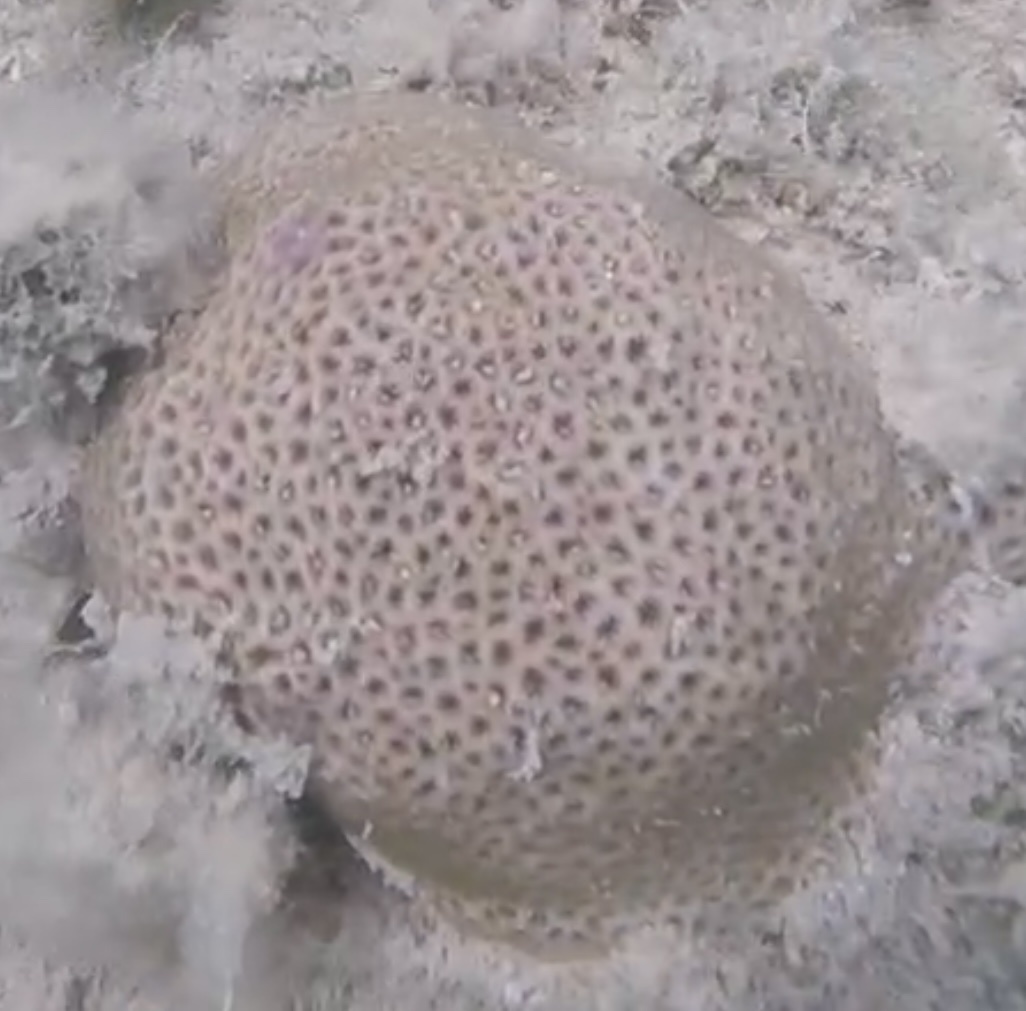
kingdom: Animalia
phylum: Cnidaria
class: Anthozoa
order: Scleractinia
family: Rhizangiidae
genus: Siderastrea
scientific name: Siderastrea radians
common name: Lesser starlet coral
